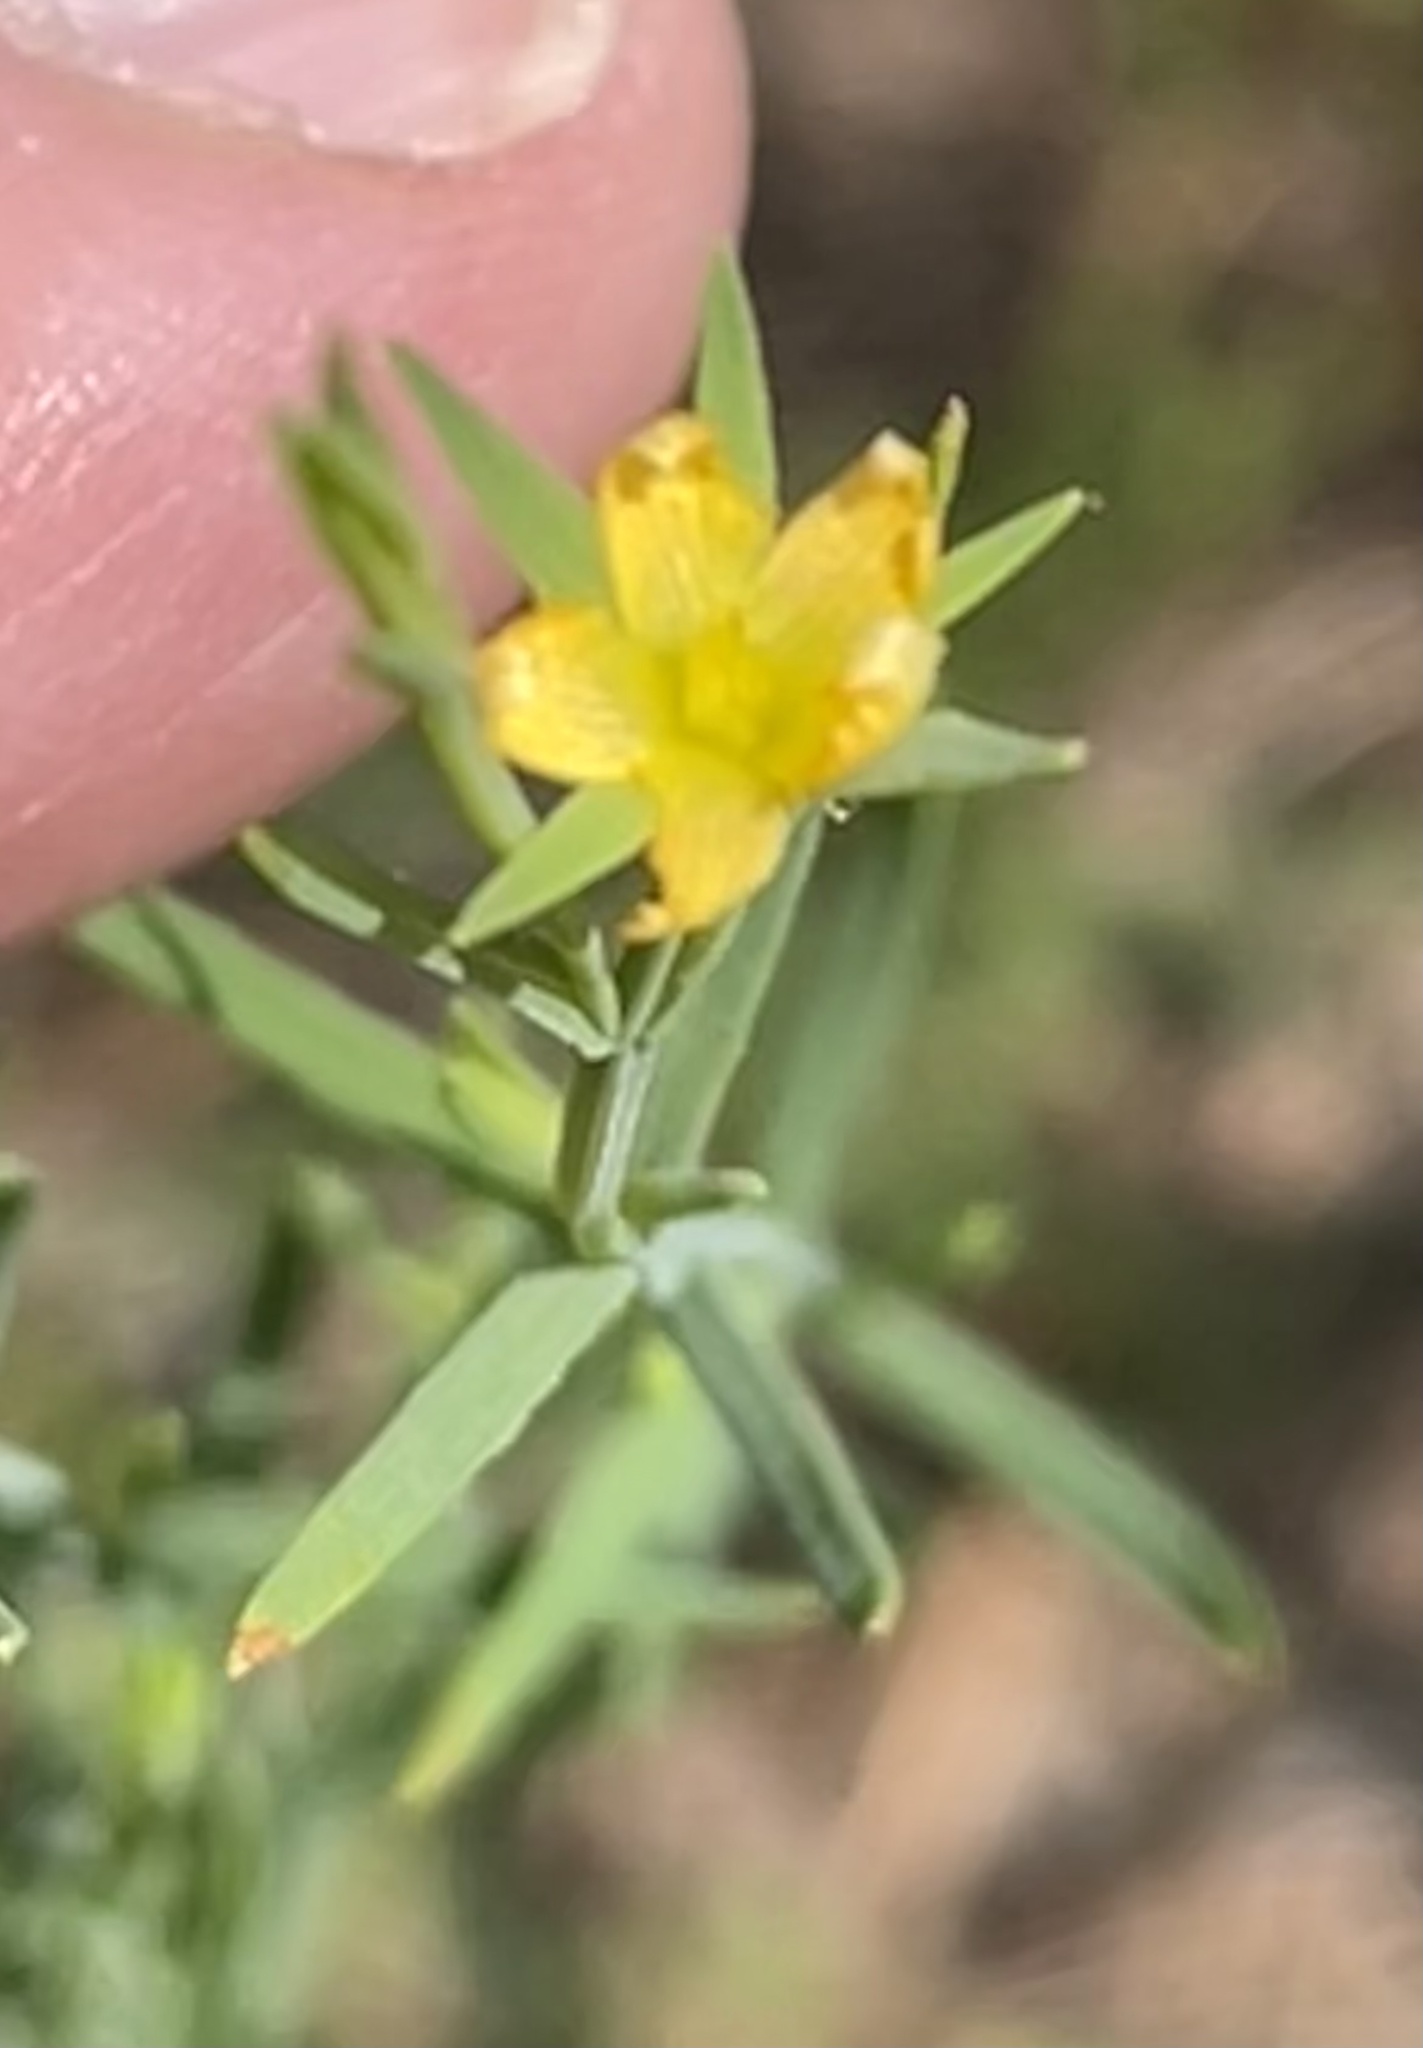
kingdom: Plantae
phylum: Tracheophyta
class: Magnoliopsida
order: Malpighiales
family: Hypericaceae
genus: Hypericum
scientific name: Hypericum drummondii
